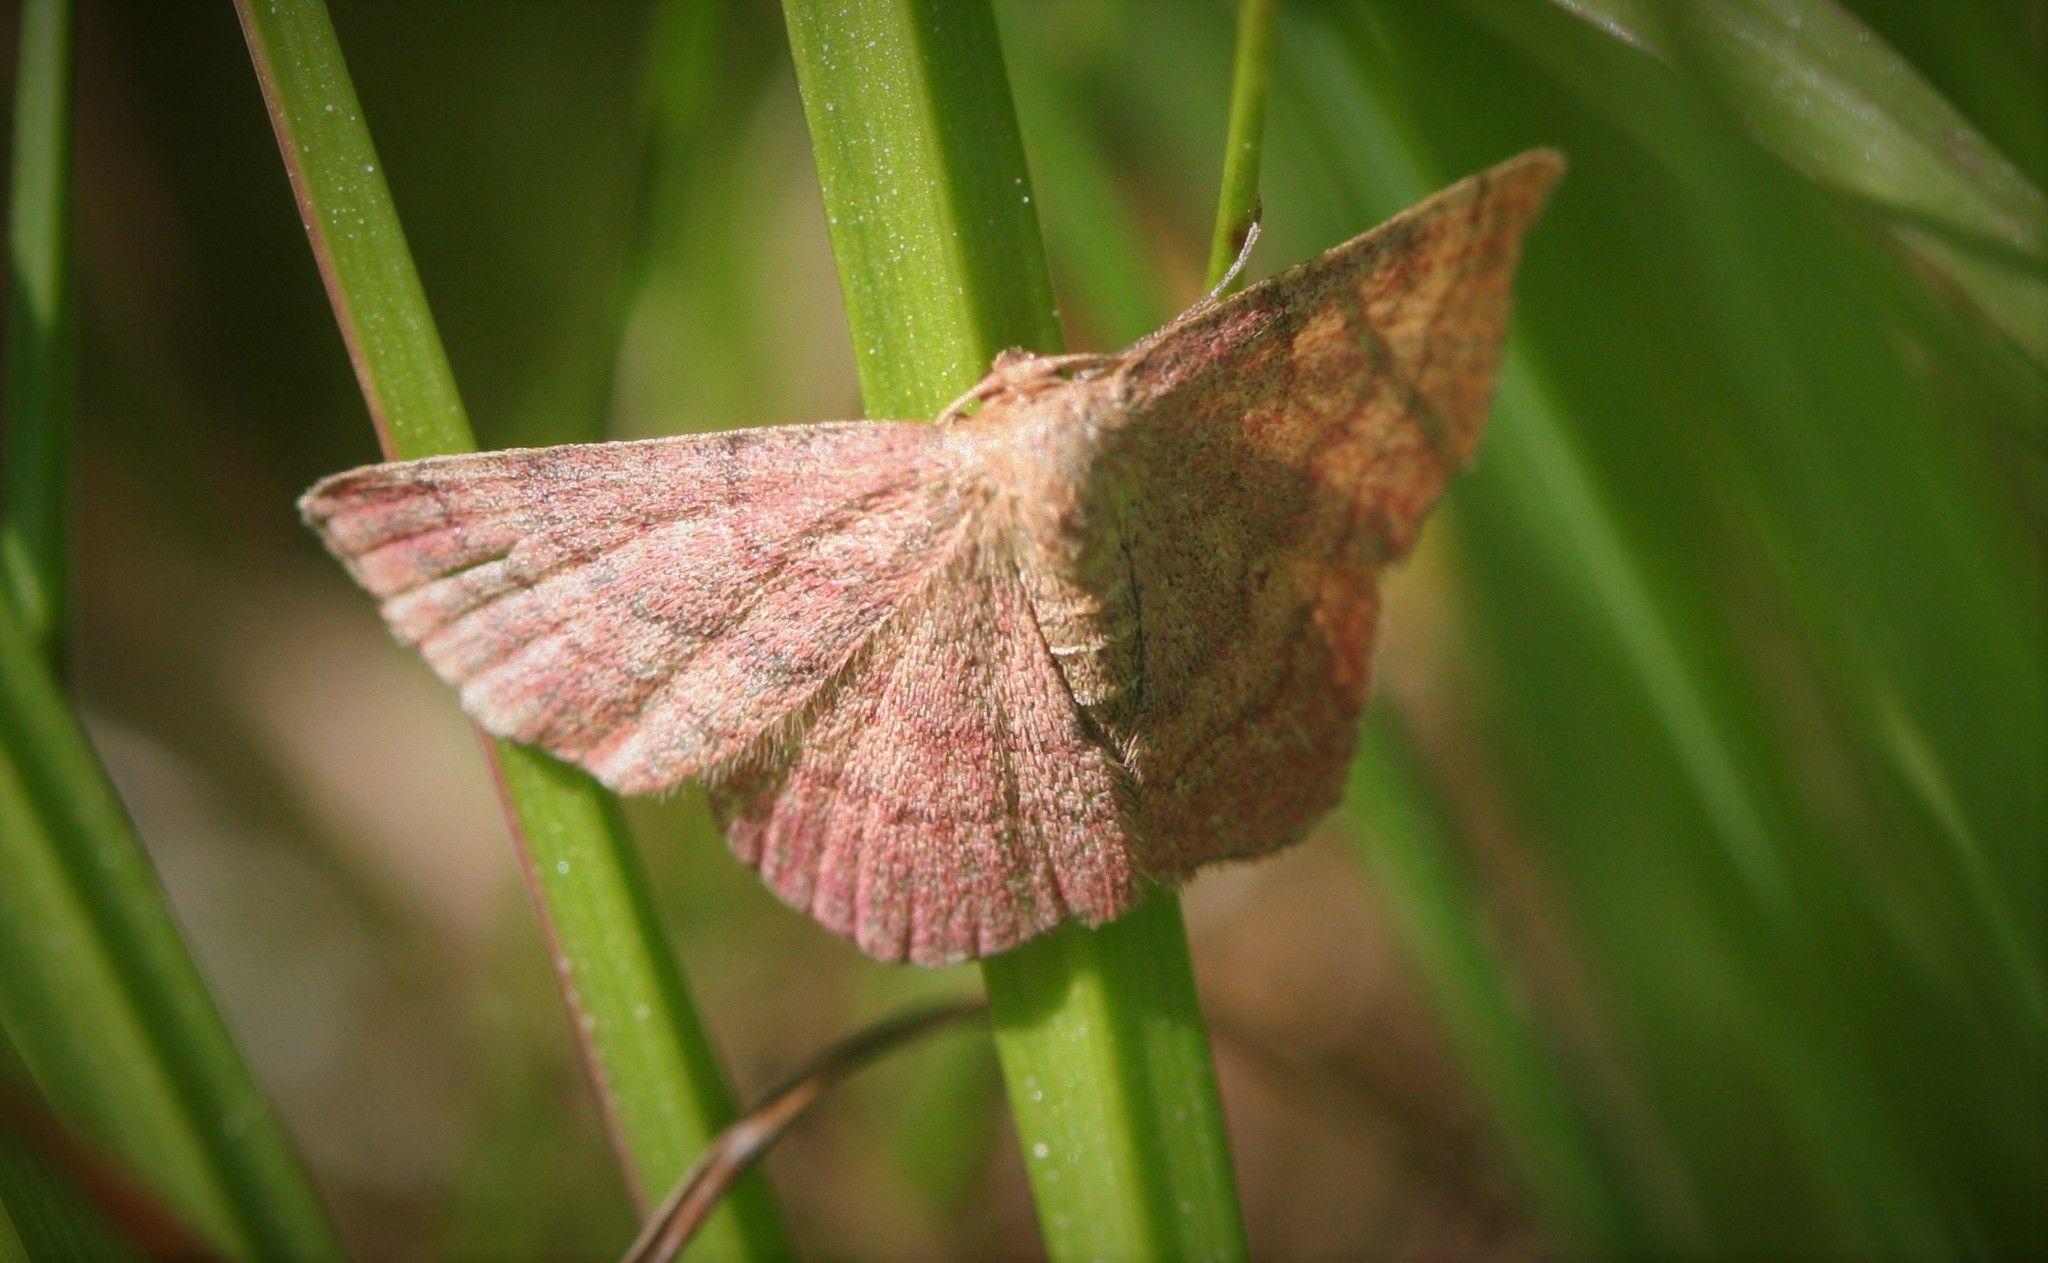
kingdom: Animalia
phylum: Arthropoda
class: Insecta
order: Lepidoptera
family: Geometridae
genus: Scopula
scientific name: Scopula rubiginata
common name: Tawny wave
